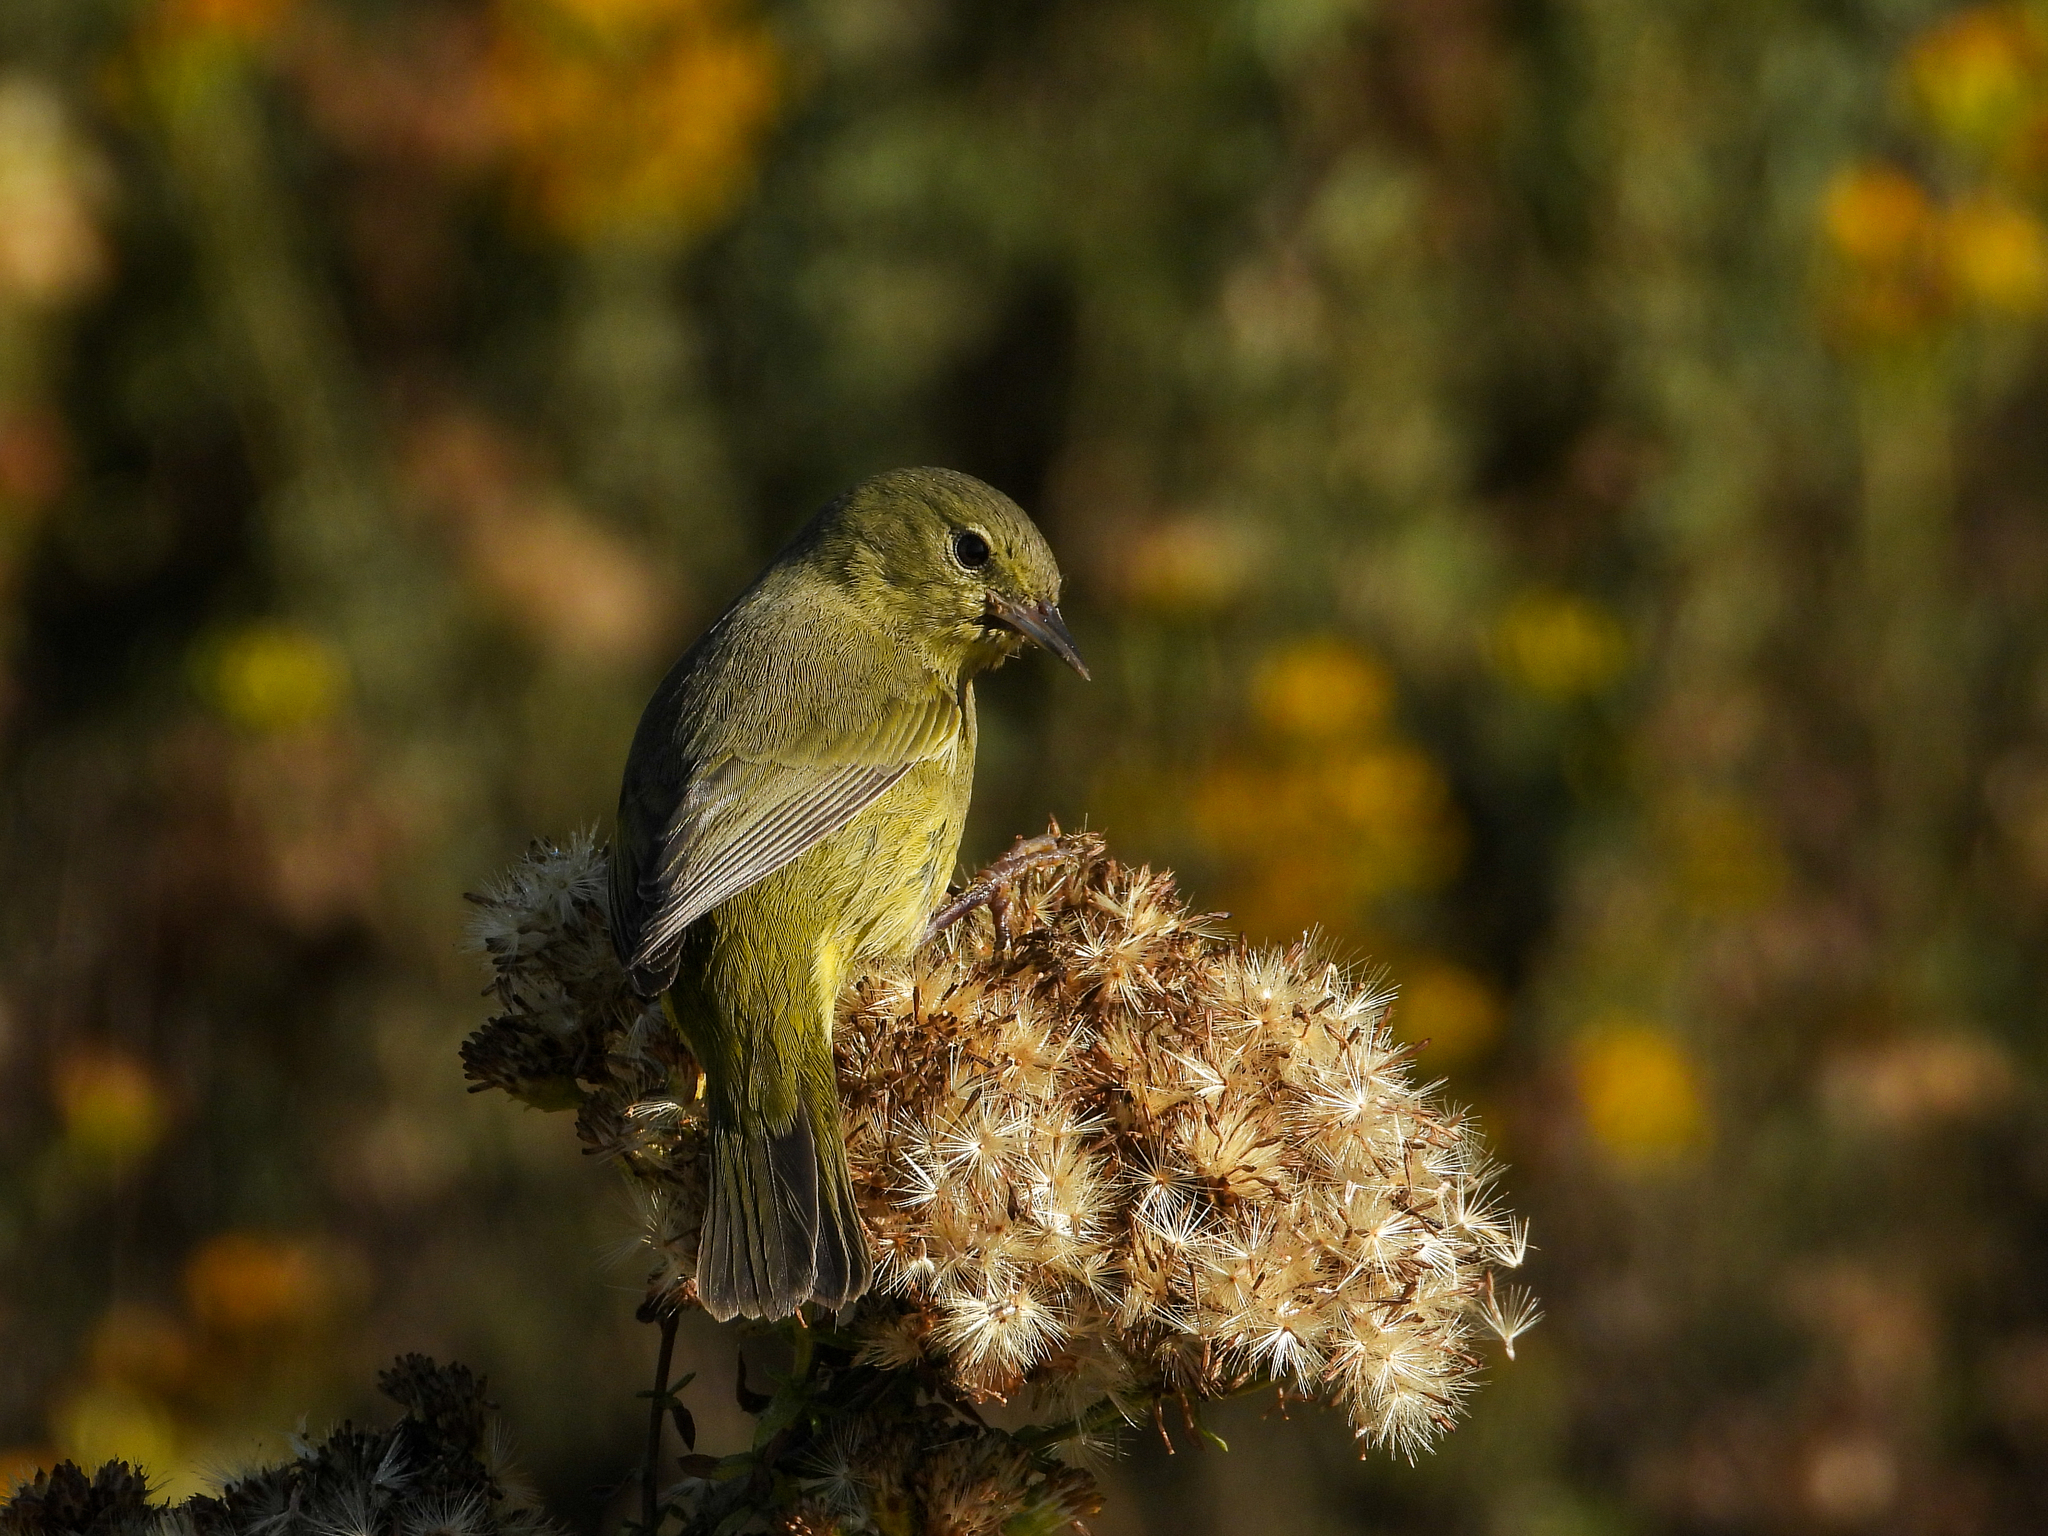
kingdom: Animalia
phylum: Chordata
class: Aves
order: Passeriformes
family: Parulidae
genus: Leiothlypis
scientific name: Leiothlypis celata
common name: Orange-crowned warbler
